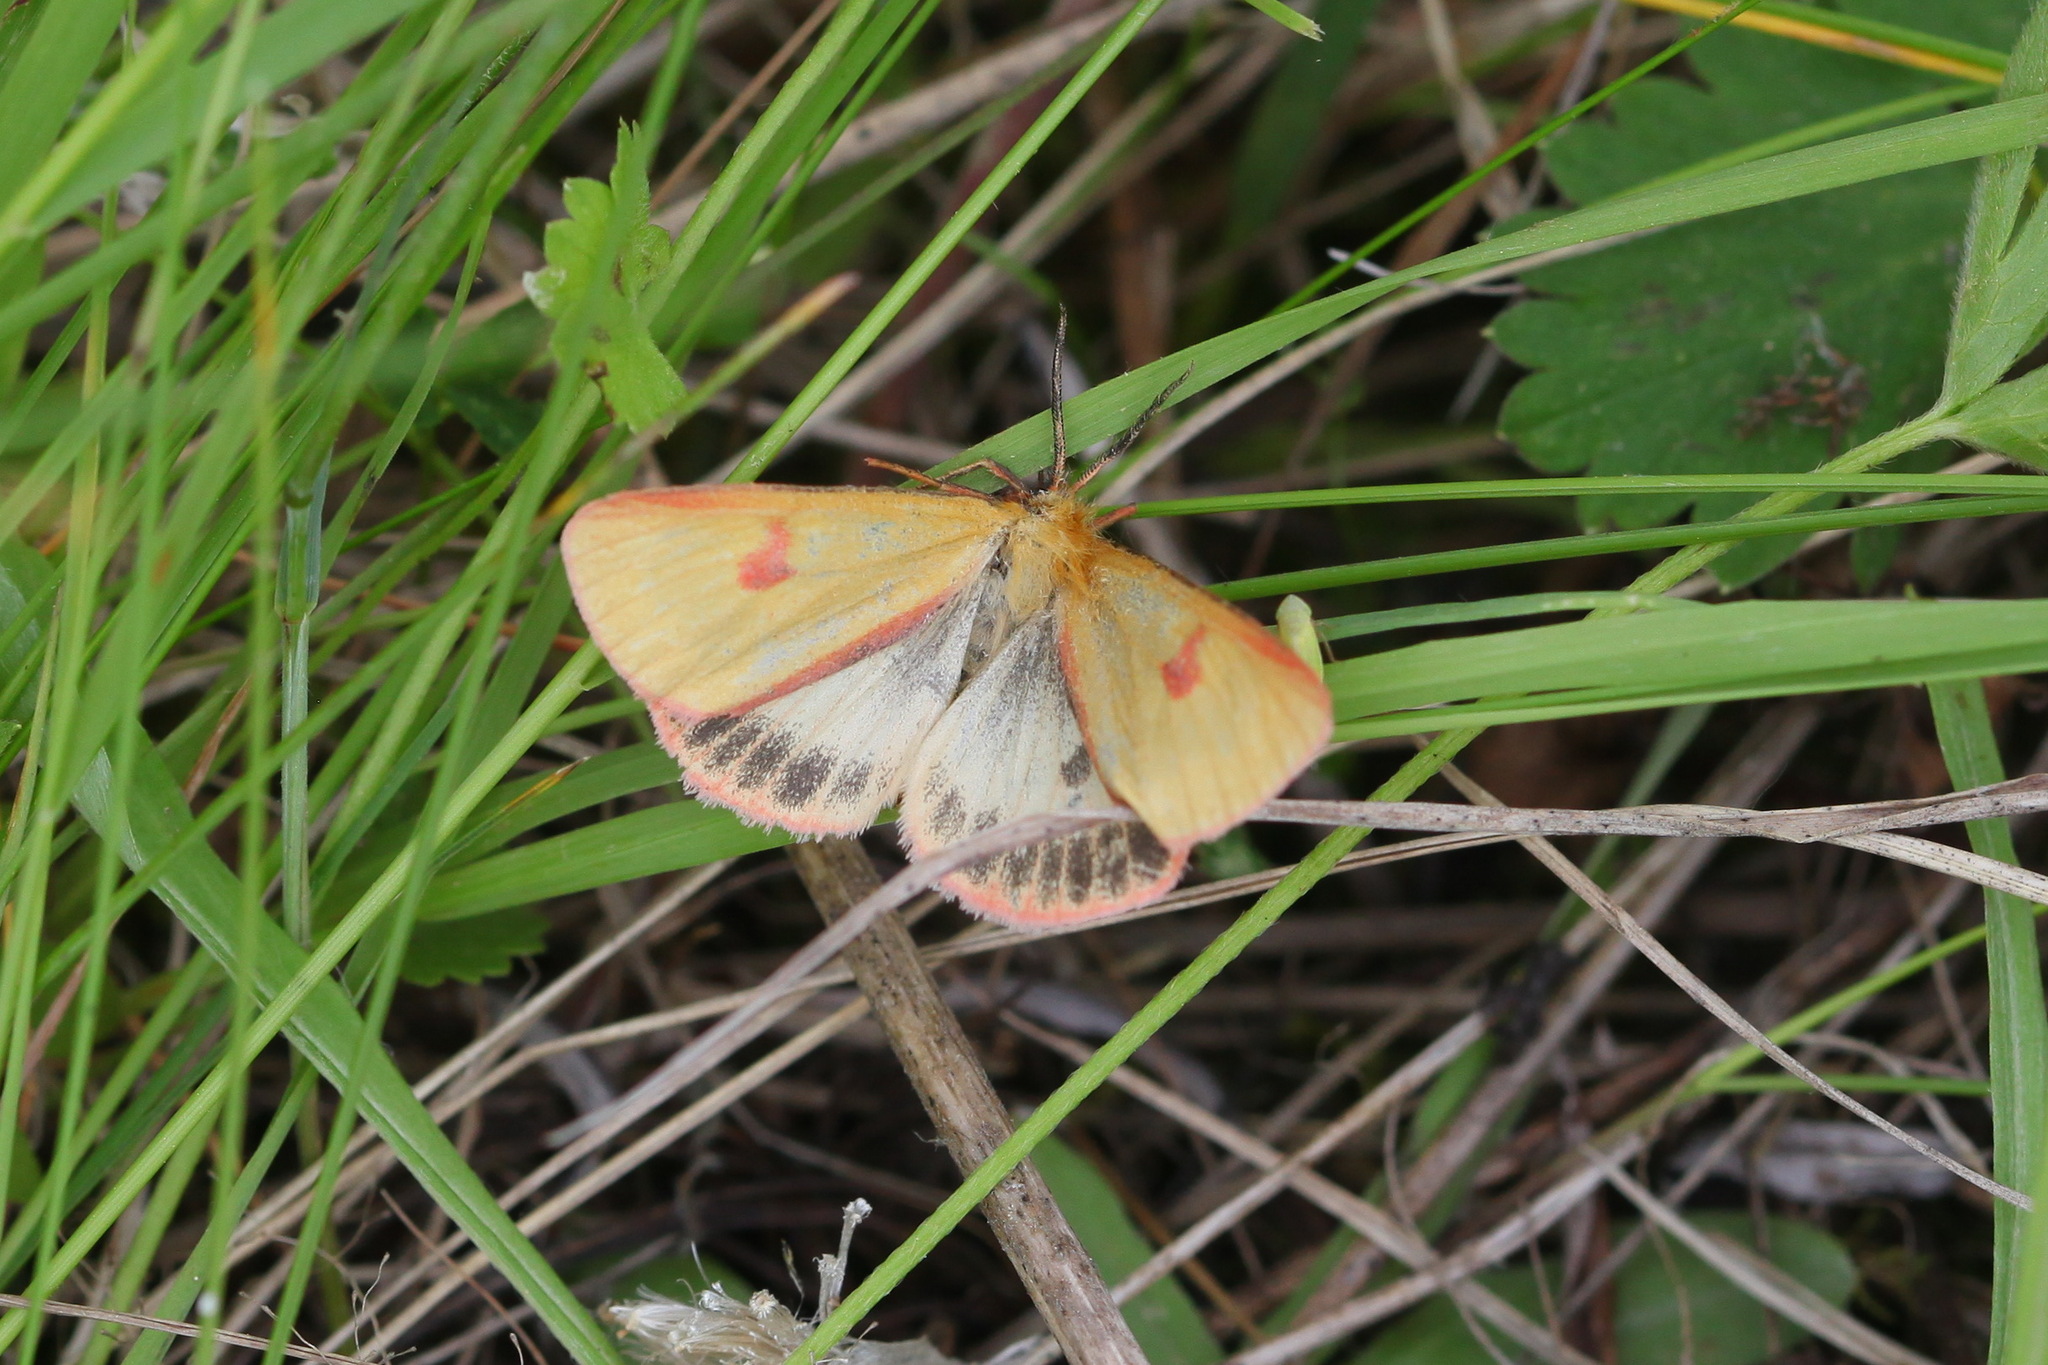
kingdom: Animalia
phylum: Arthropoda
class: Insecta
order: Lepidoptera
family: Erebidae
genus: Diacrisia
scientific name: Diacrisia sannio
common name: Clouded buff
